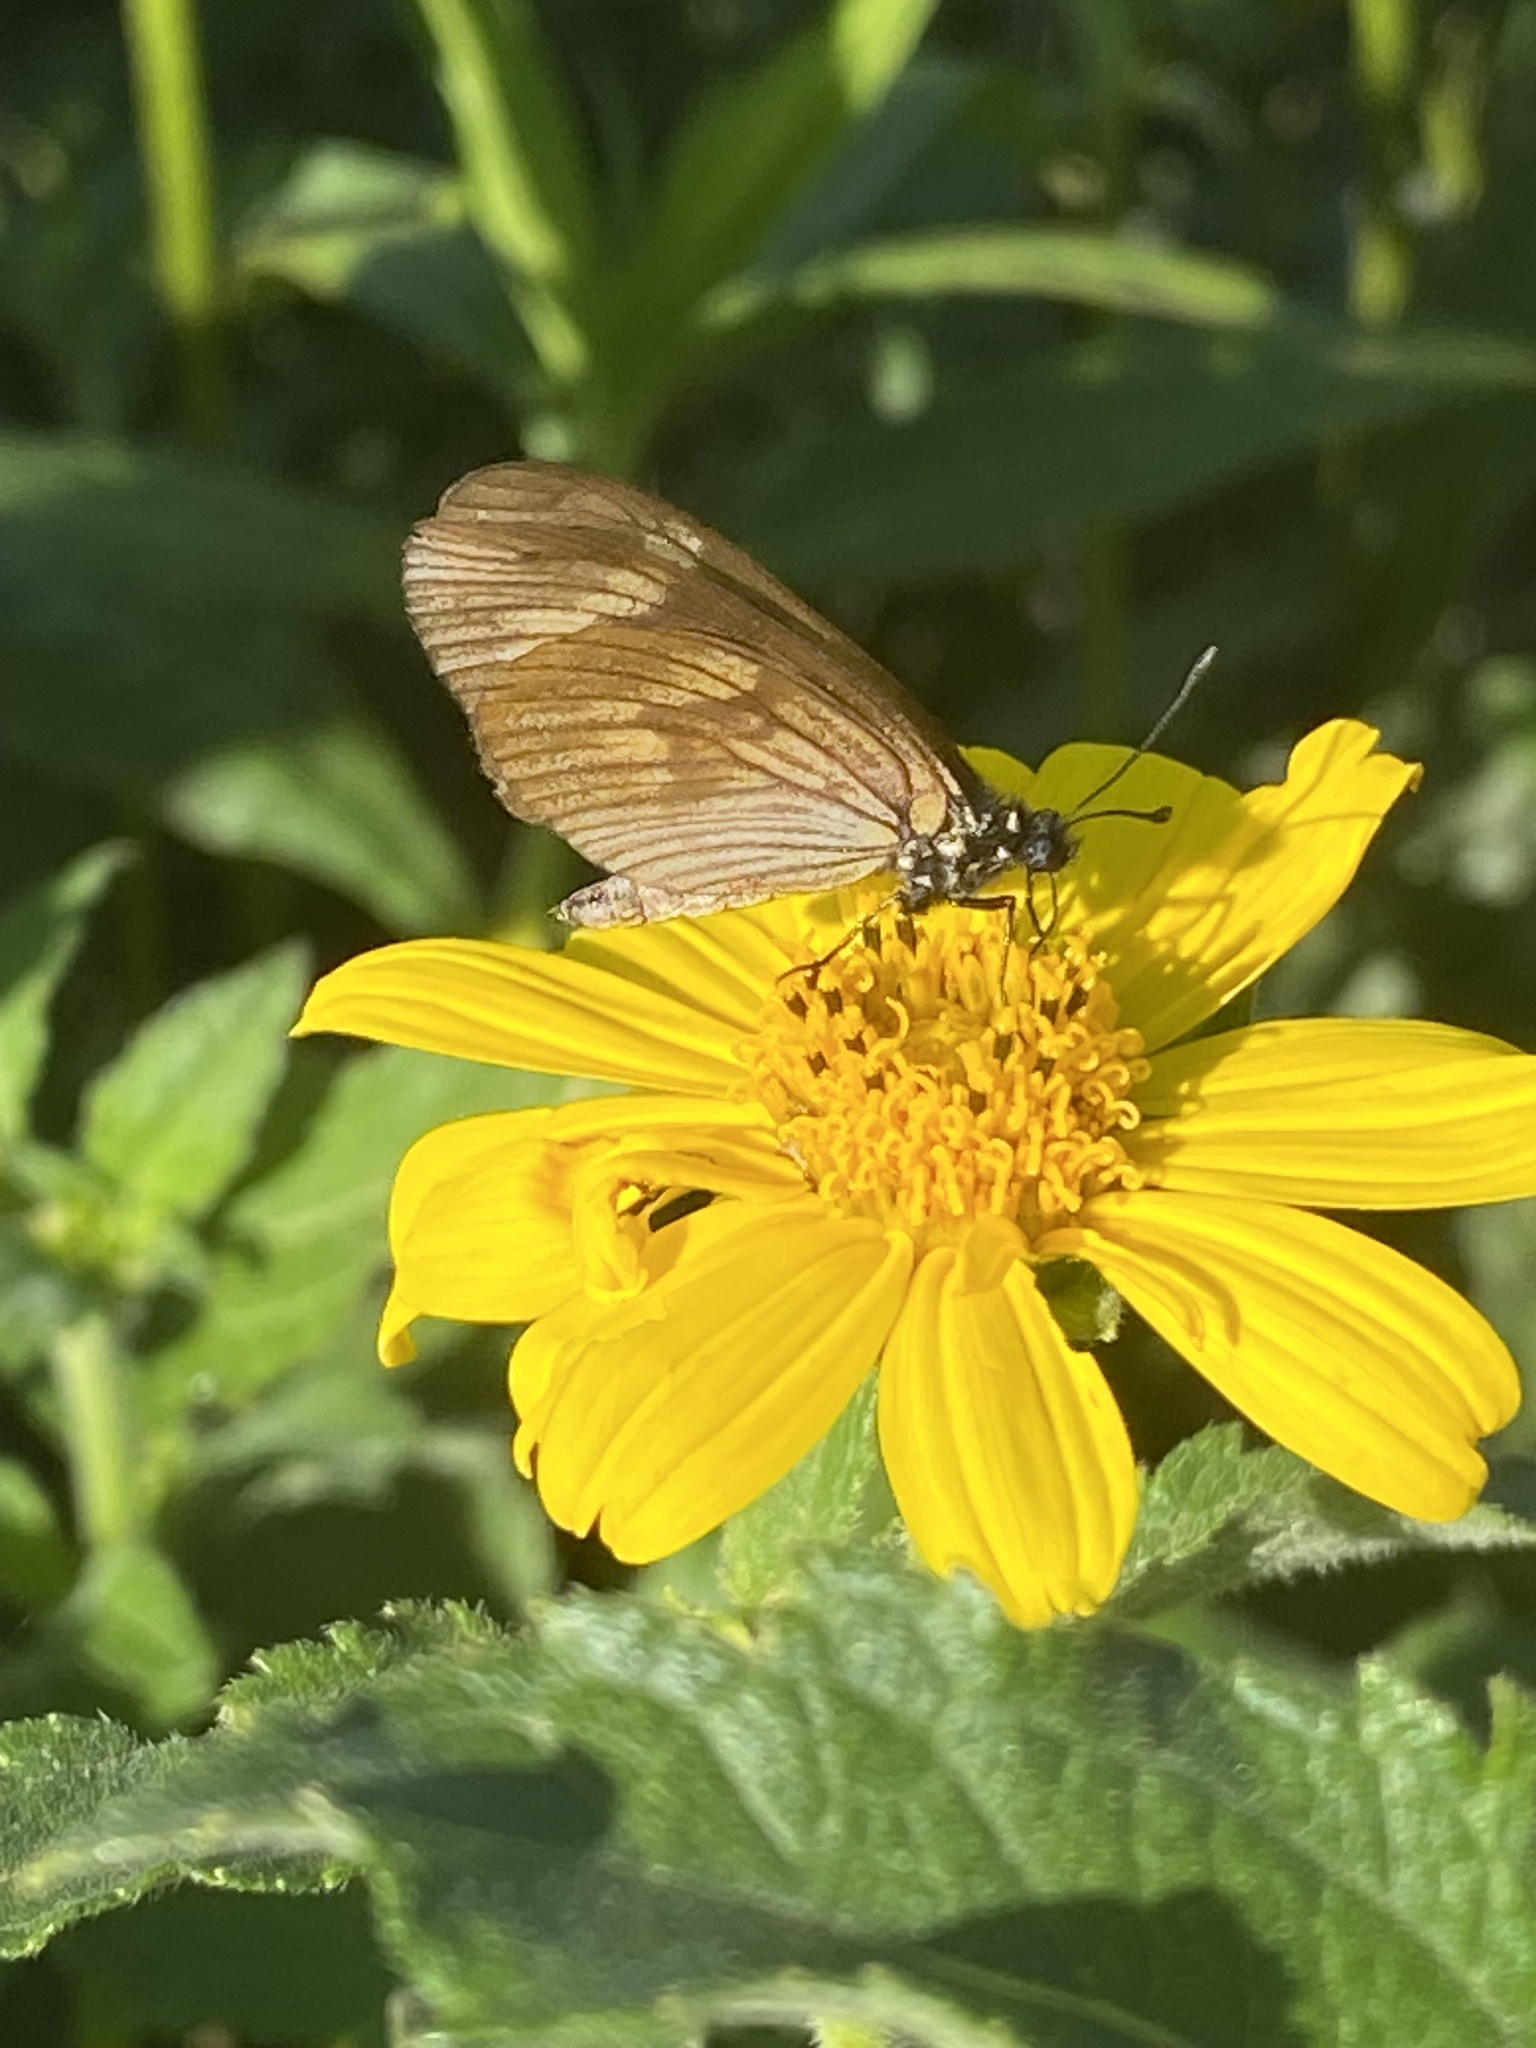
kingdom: Animalia
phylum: Arthropoda
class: Insecta
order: Lepidoptera
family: Nymphalidae
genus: Actinote
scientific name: Actinote pellenea
